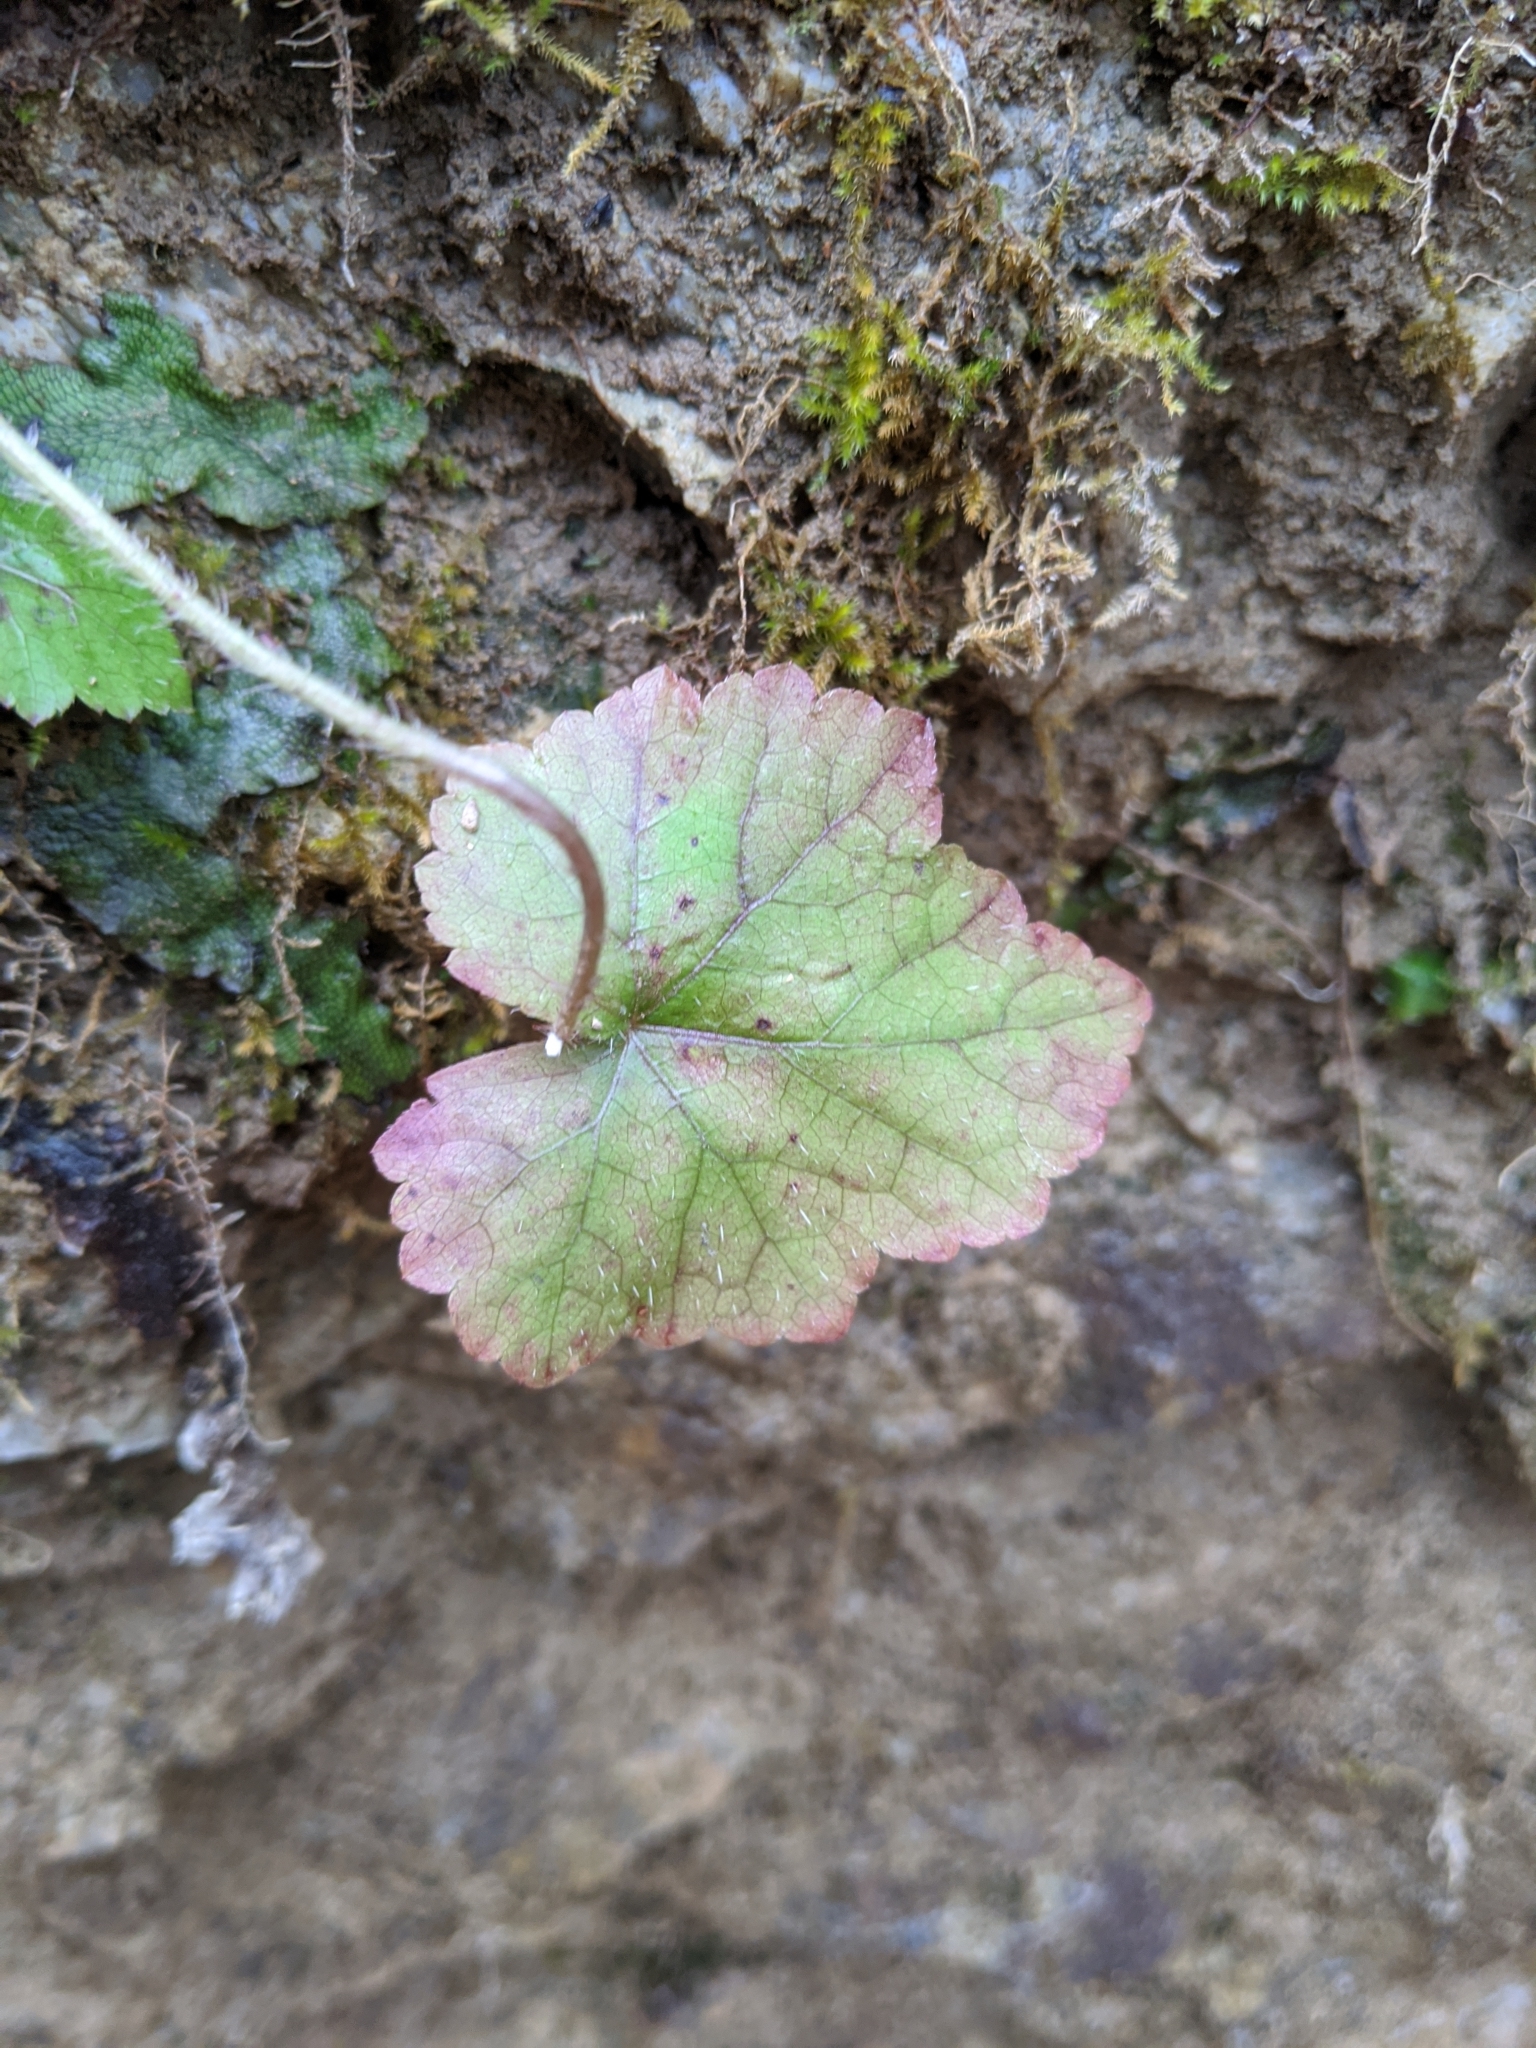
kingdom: Plantae
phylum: Tracheophyta
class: Magnoliopsida
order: Saxifragales
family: Saxifragaceae
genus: Mitella
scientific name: Mitella diphylla
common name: Coolwort
